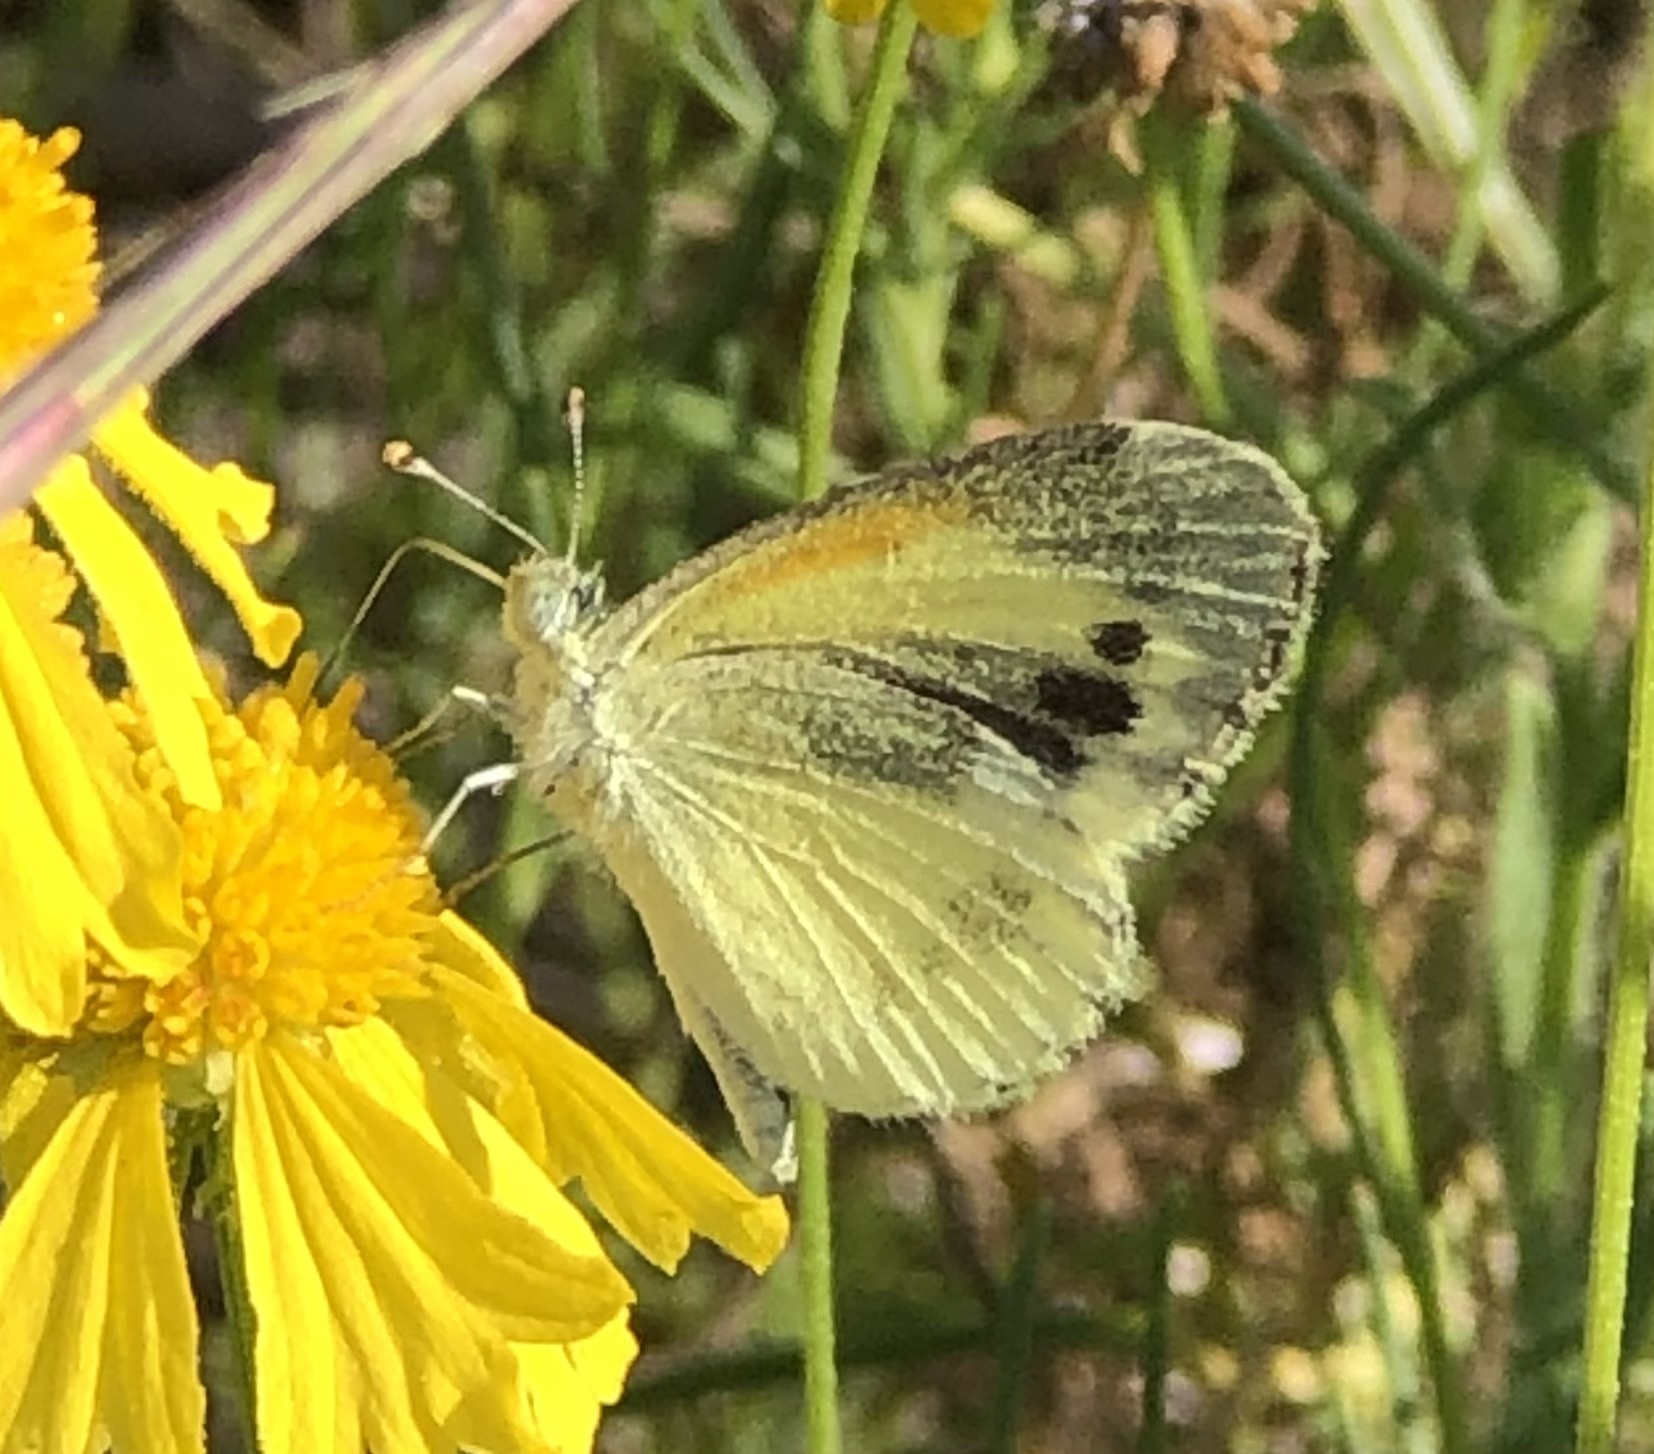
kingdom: Animalia
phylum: Arthropoda
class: Insecta
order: Lepidoptera
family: Pieridae
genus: Nathalis
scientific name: Nathalis iole
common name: Dainty sulphur
